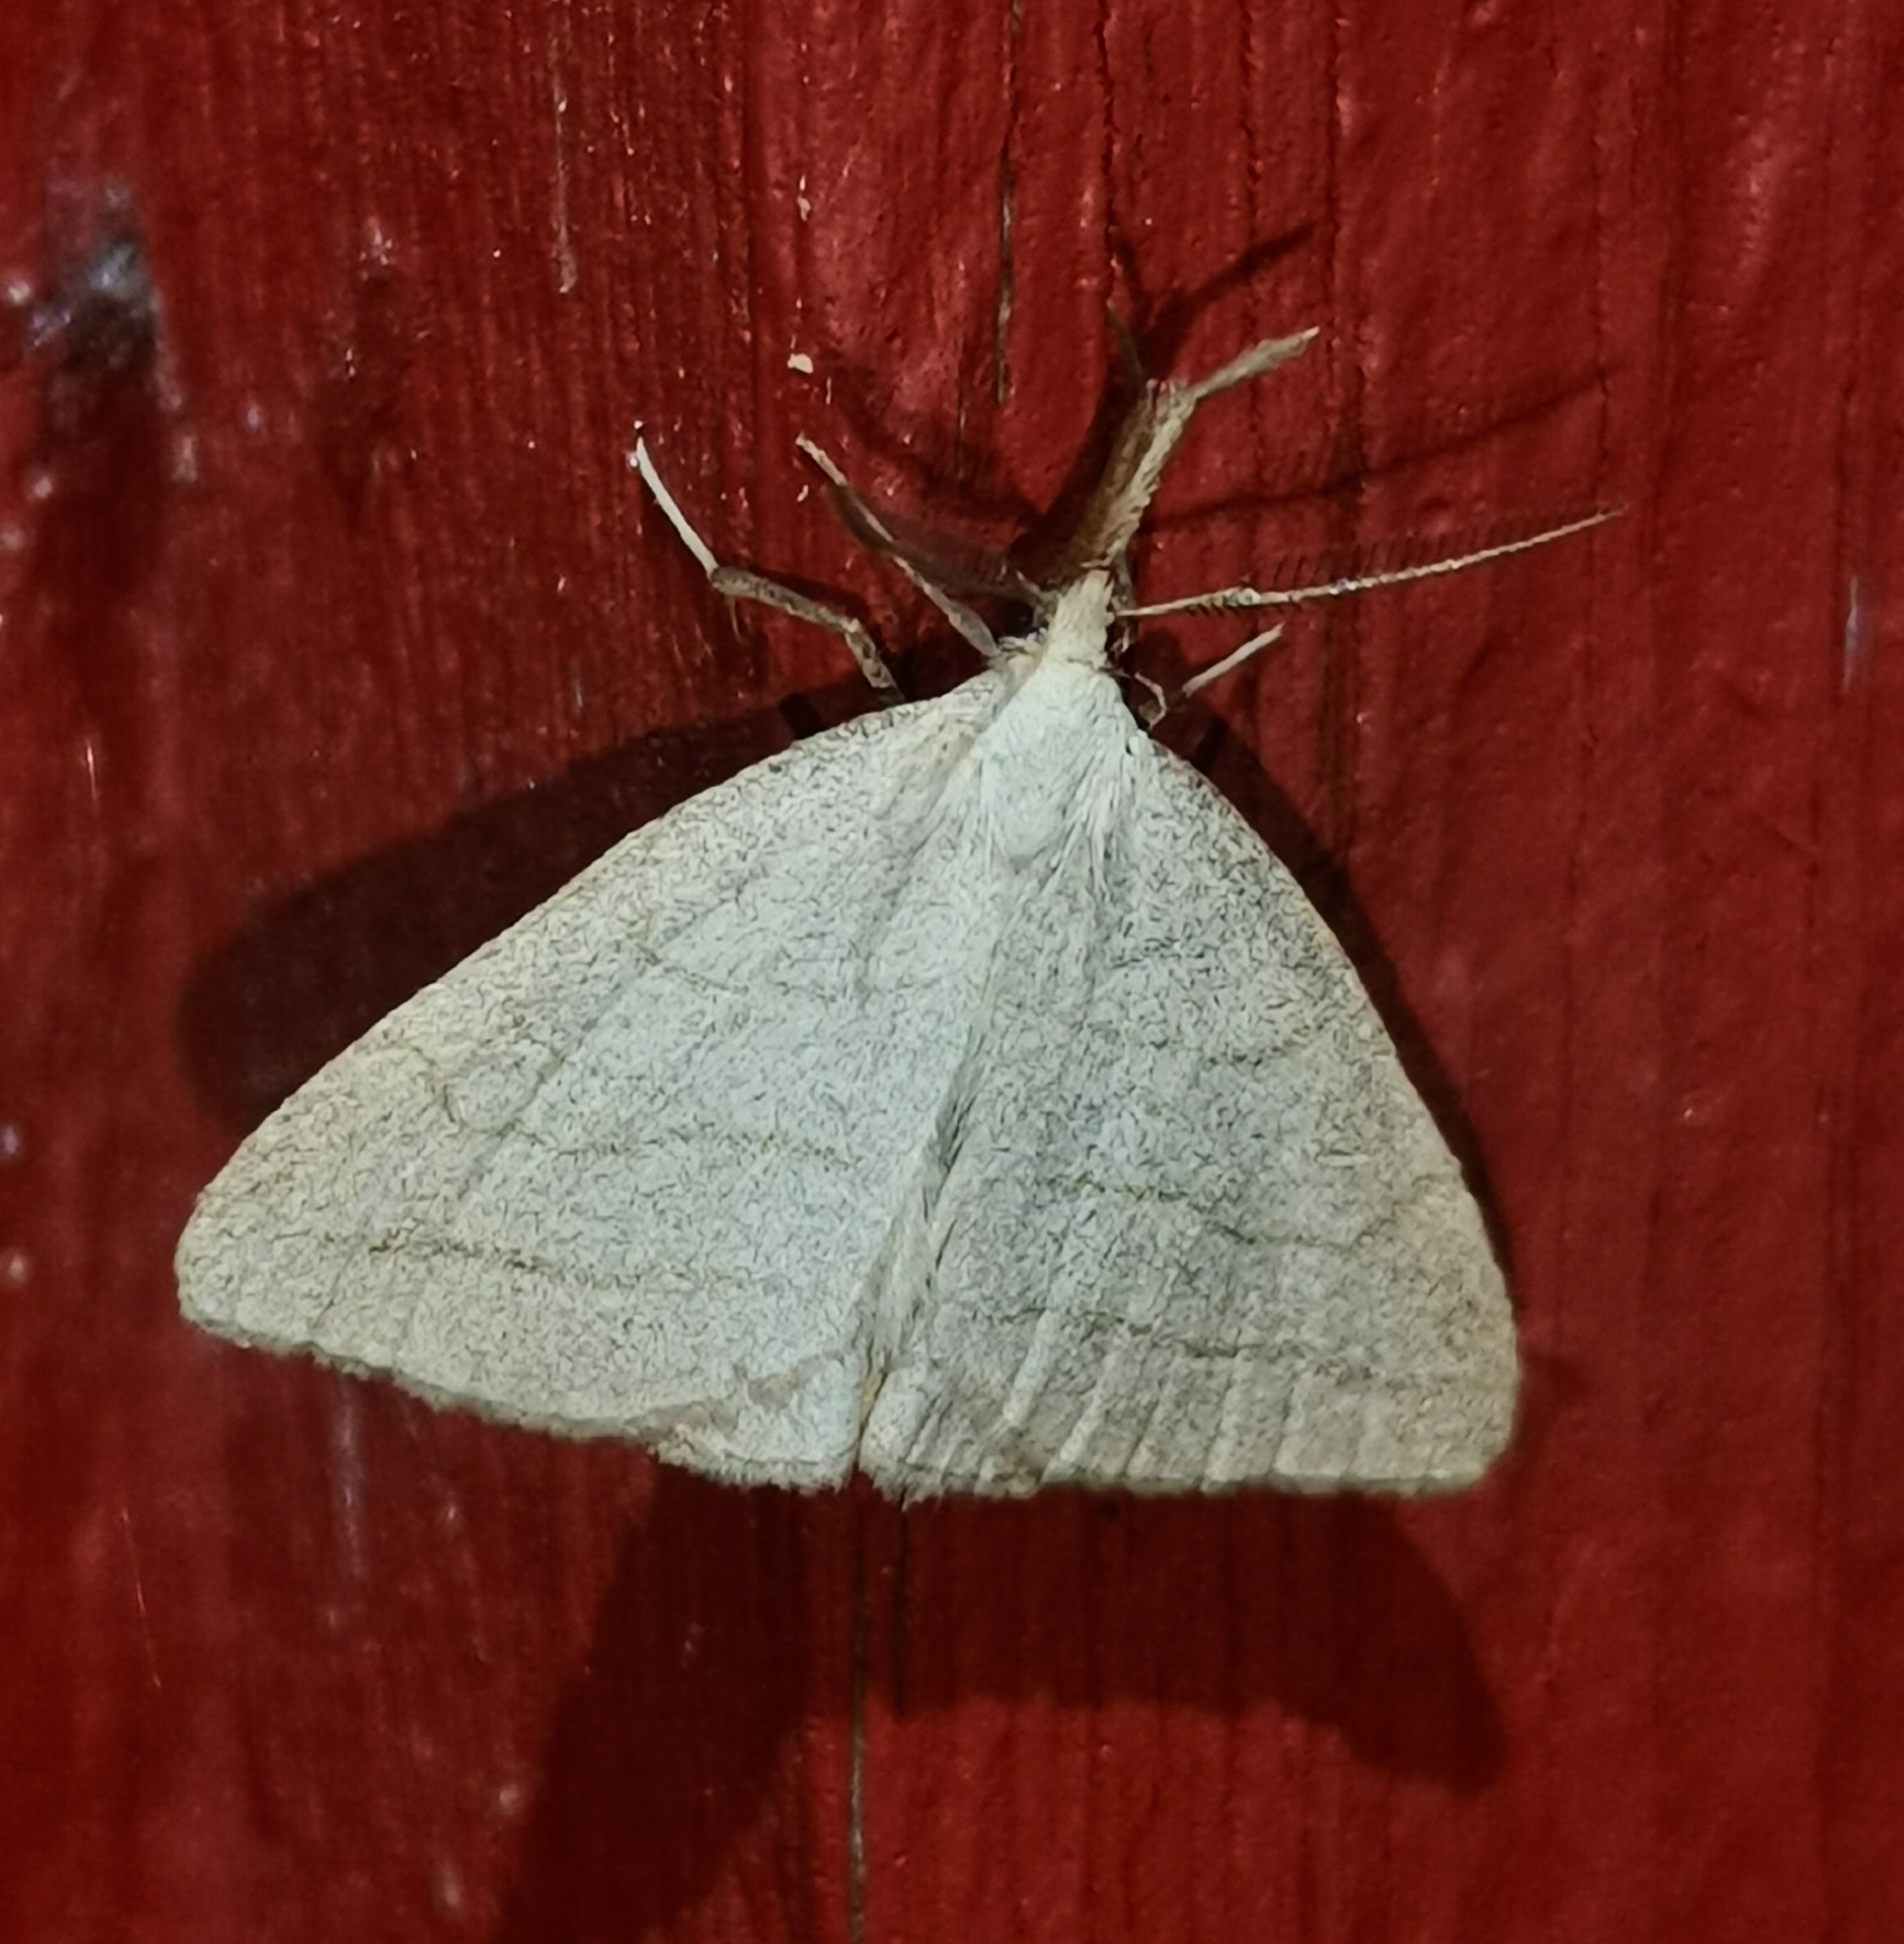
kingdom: Animalia
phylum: Arthropoda
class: Insecta
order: Lepidoptera
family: Erebidae
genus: Polypogon
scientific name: Polypogon tentacularia
